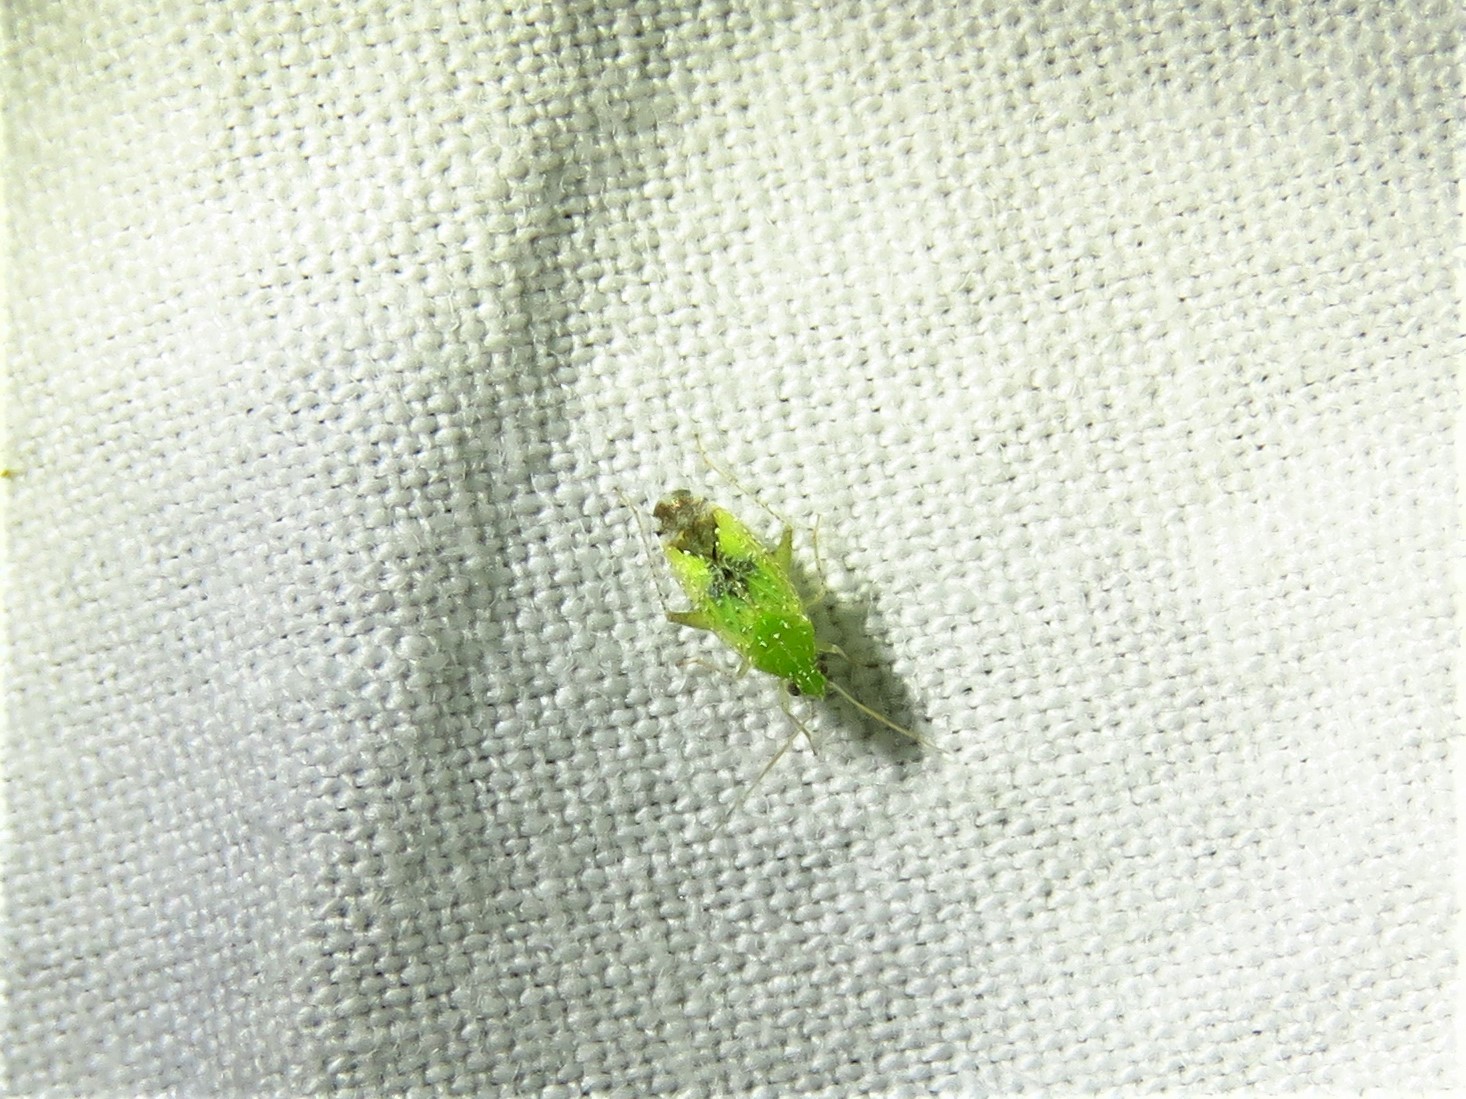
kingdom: Animalia
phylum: Arthropoda
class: Insecta
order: Hemiptera
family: Miridae
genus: Keltonia
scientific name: Keltonia tuckeri
